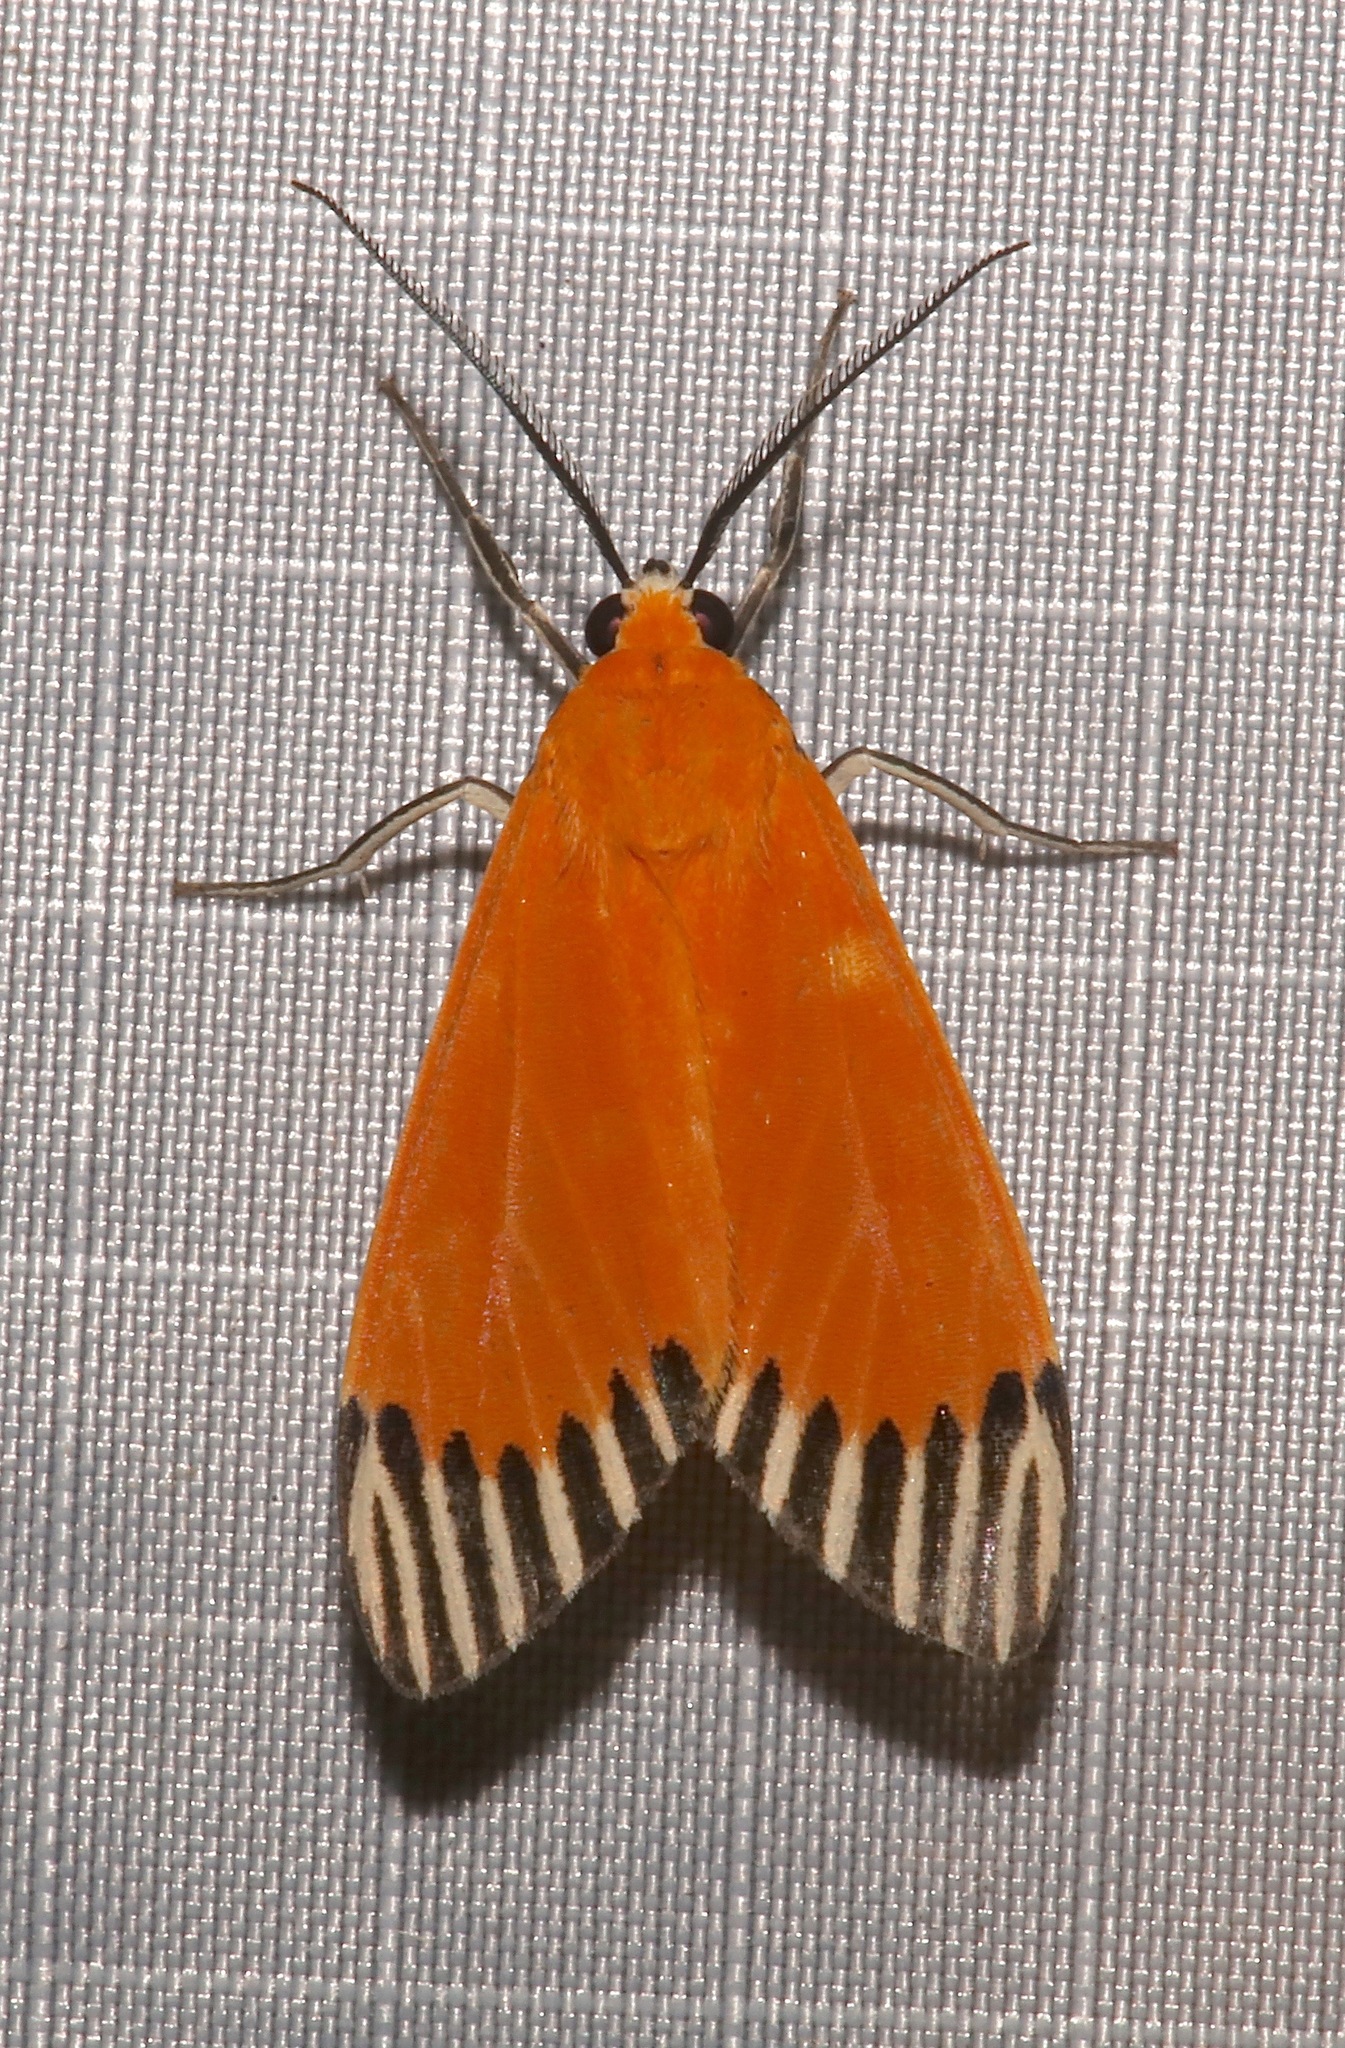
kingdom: Animalia
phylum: Arthropoda
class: Insecta
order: Lepidoptera
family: Erebidae
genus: Uranophora
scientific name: Uranophora walkeri
